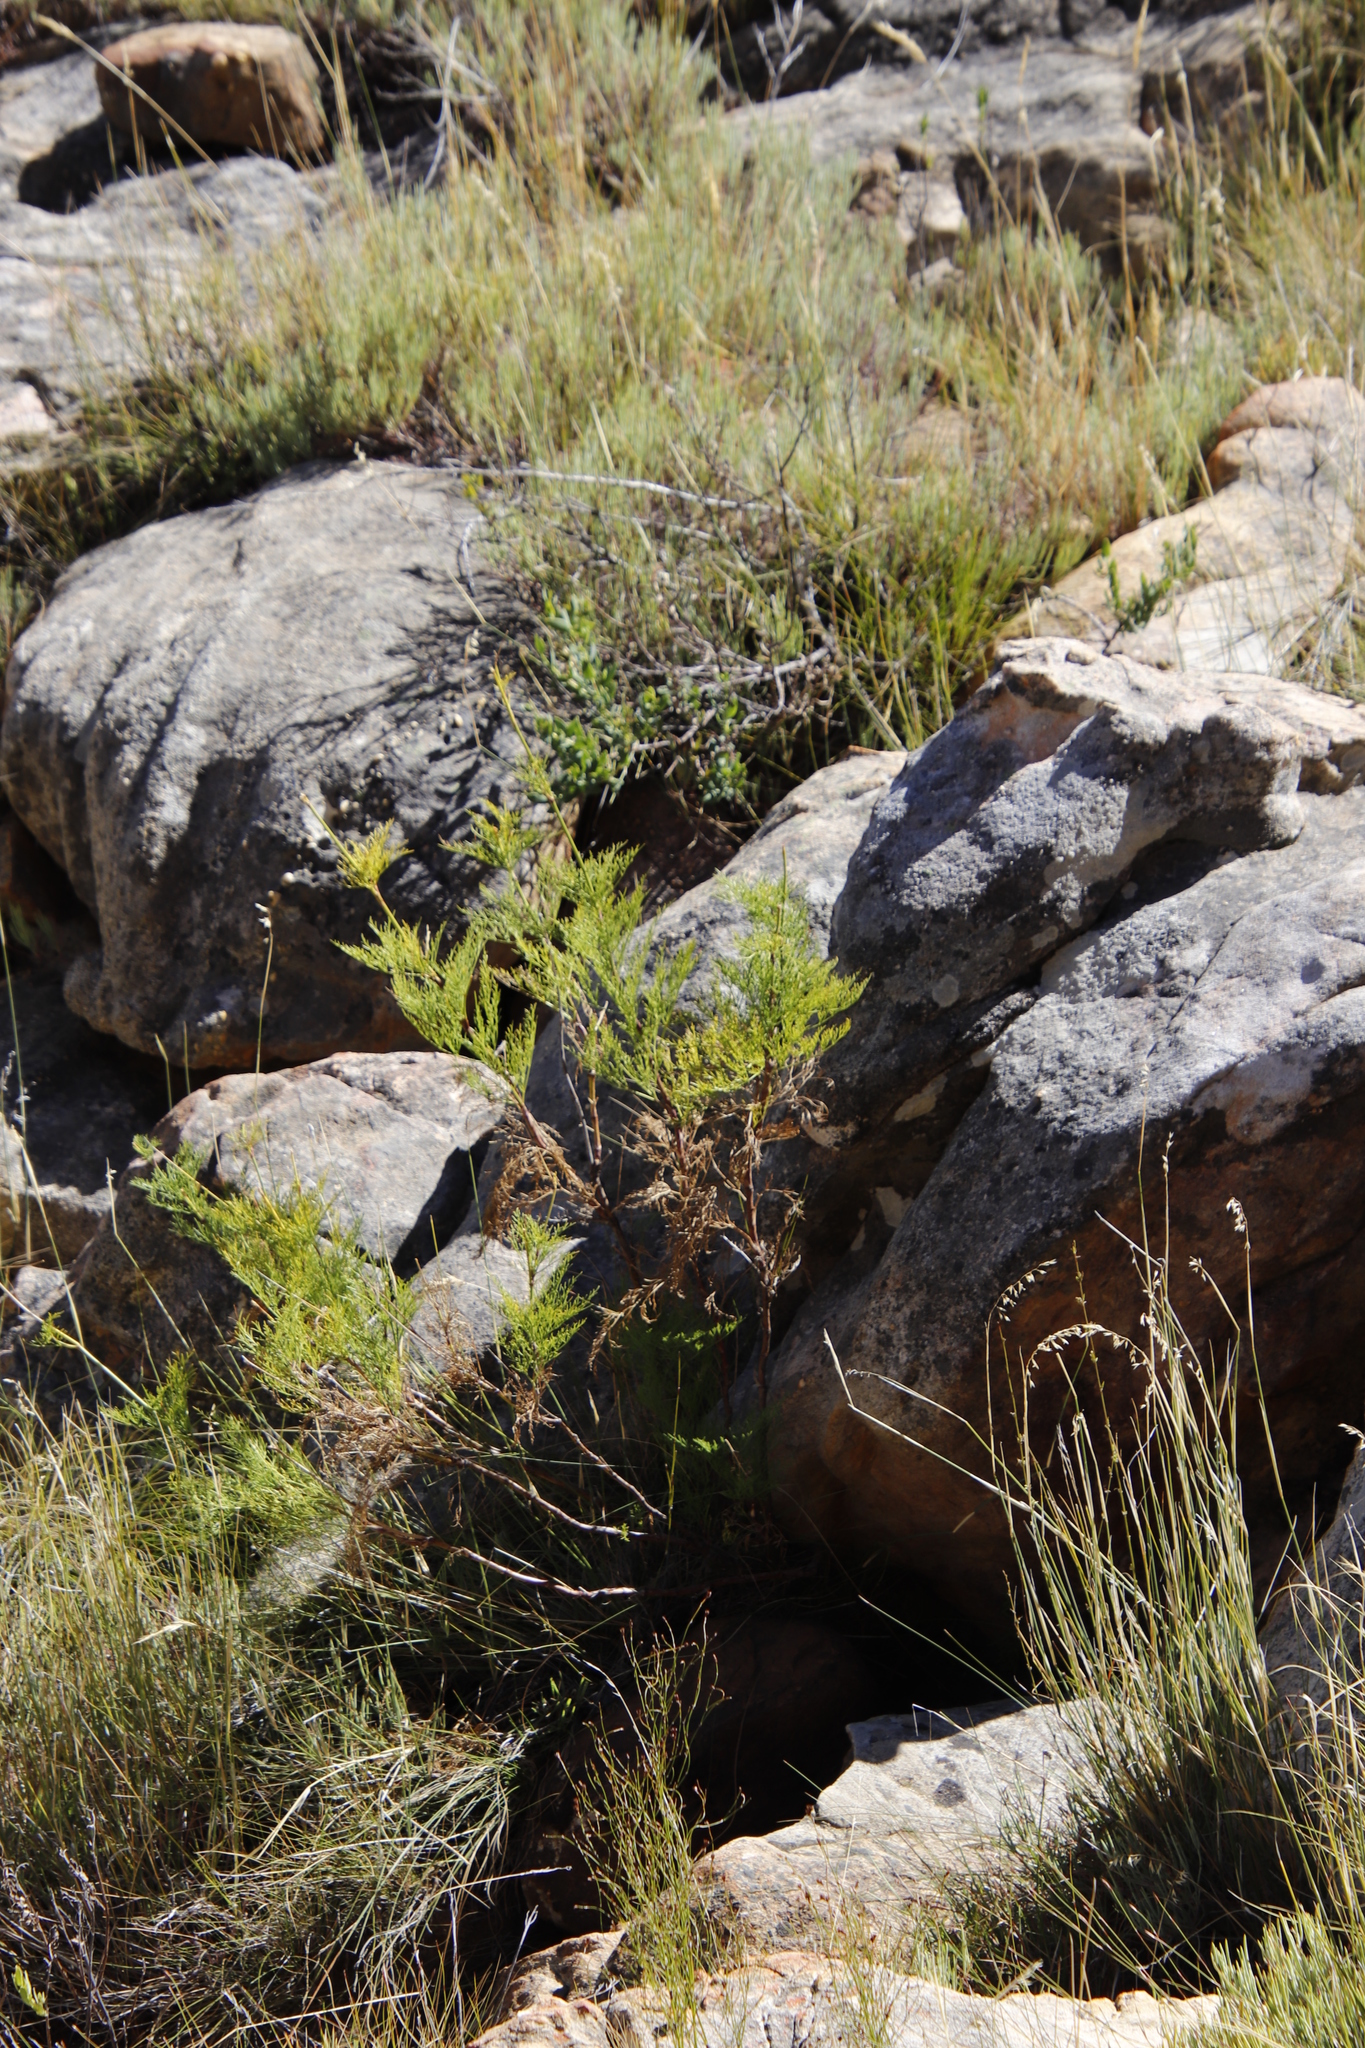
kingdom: Plantae
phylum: Tracheophyta
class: Magnoliopsida
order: Apiales
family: Apiaceae
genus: Notobubon
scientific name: Notobubon tenuifolium
